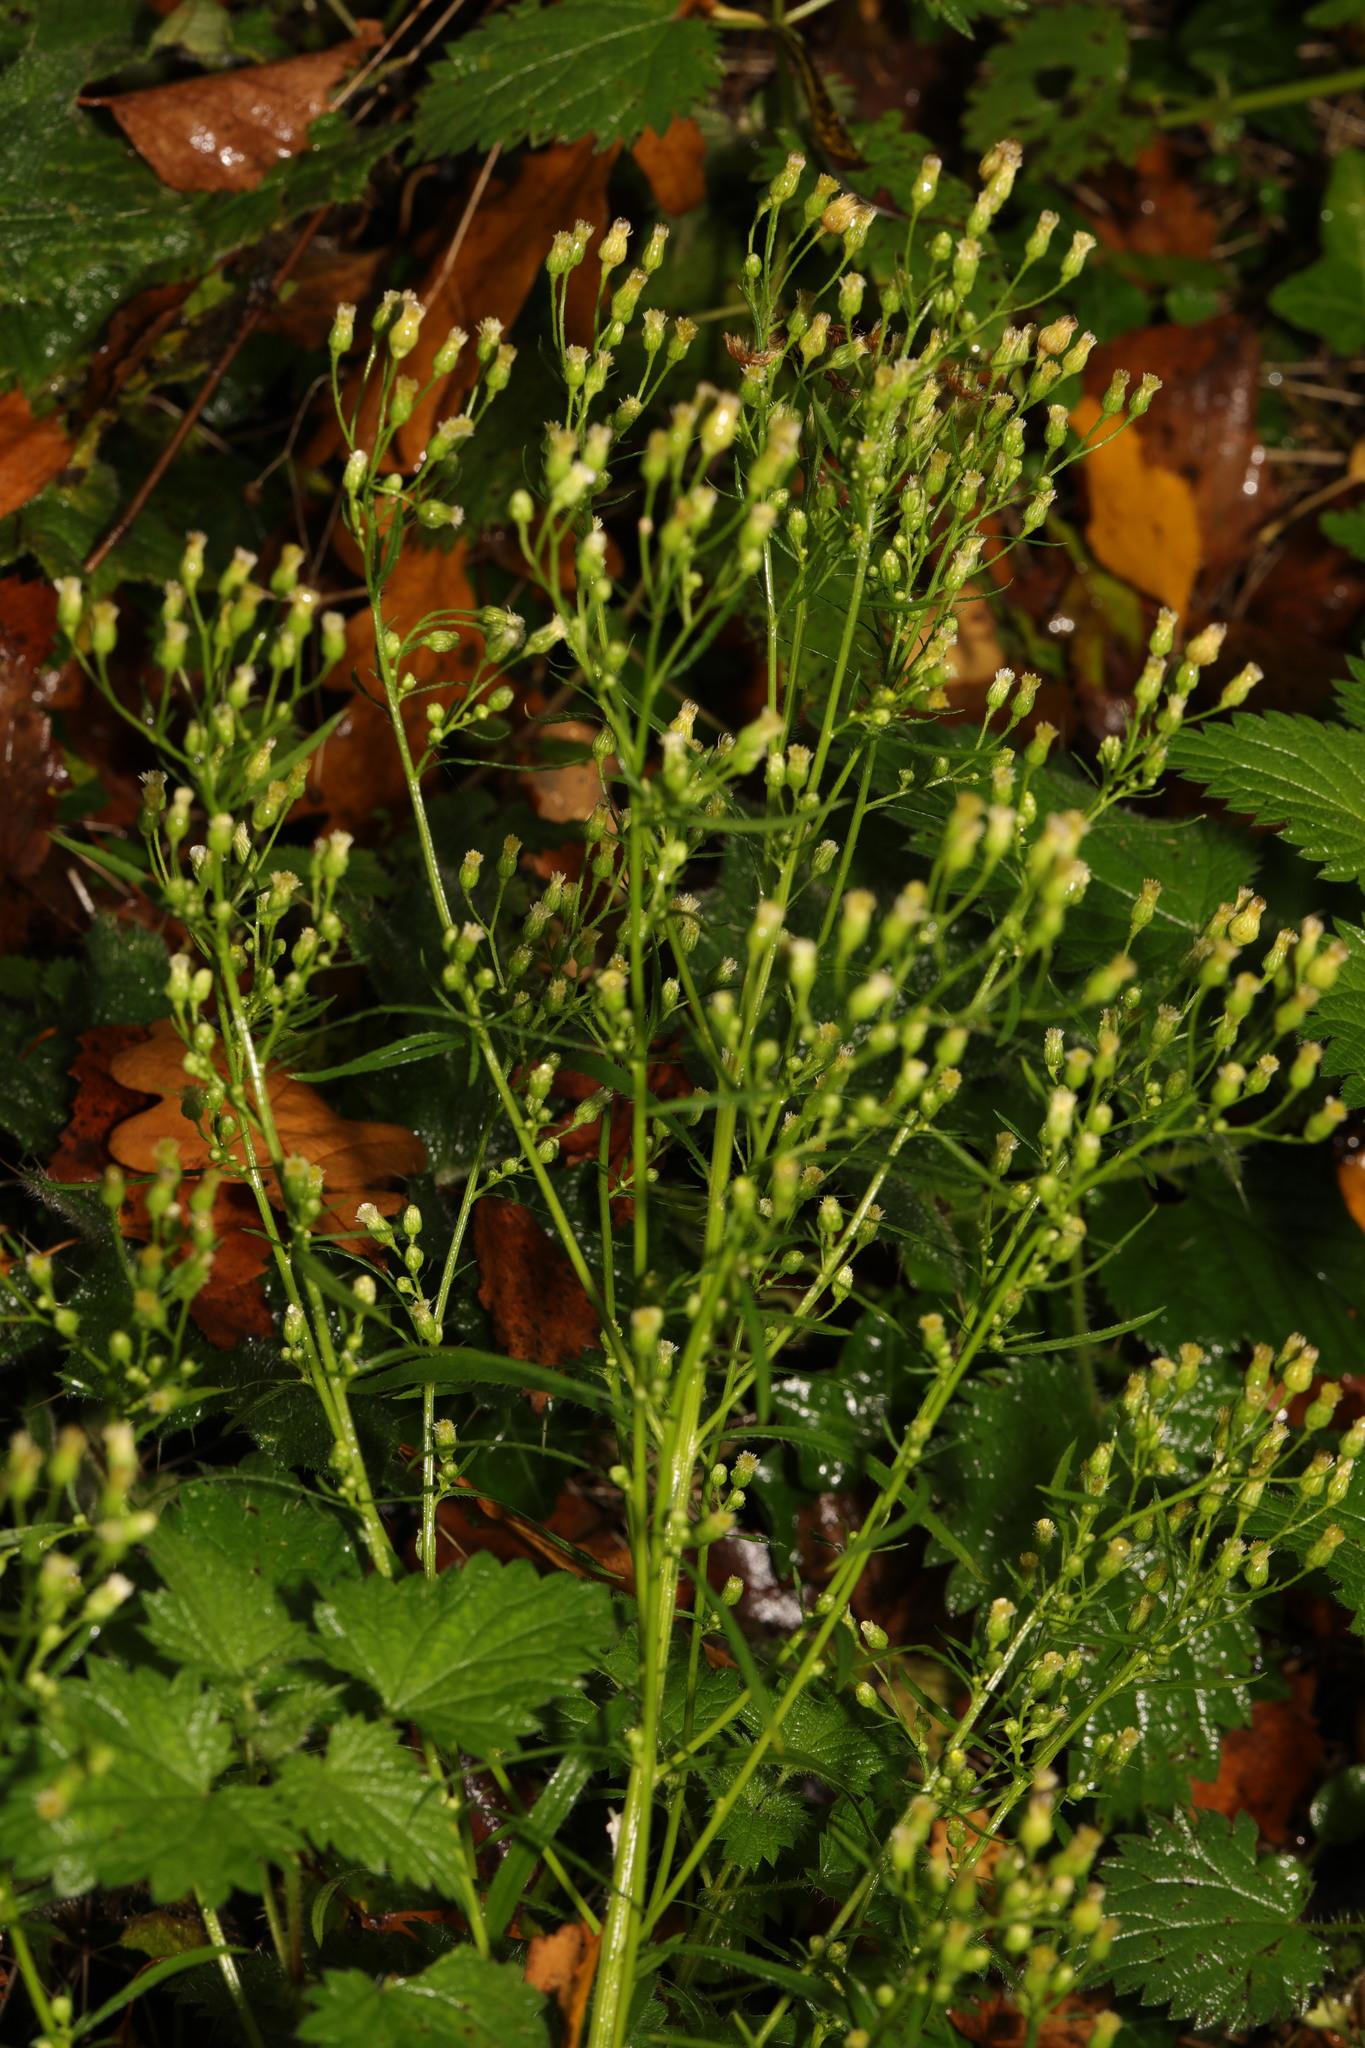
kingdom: Plantae
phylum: Tracheophyta
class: Magnoliopsida
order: Asterales
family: Asteraceae
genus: Erigeron
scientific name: Erigeron canadensis
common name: Canadian fleabane
